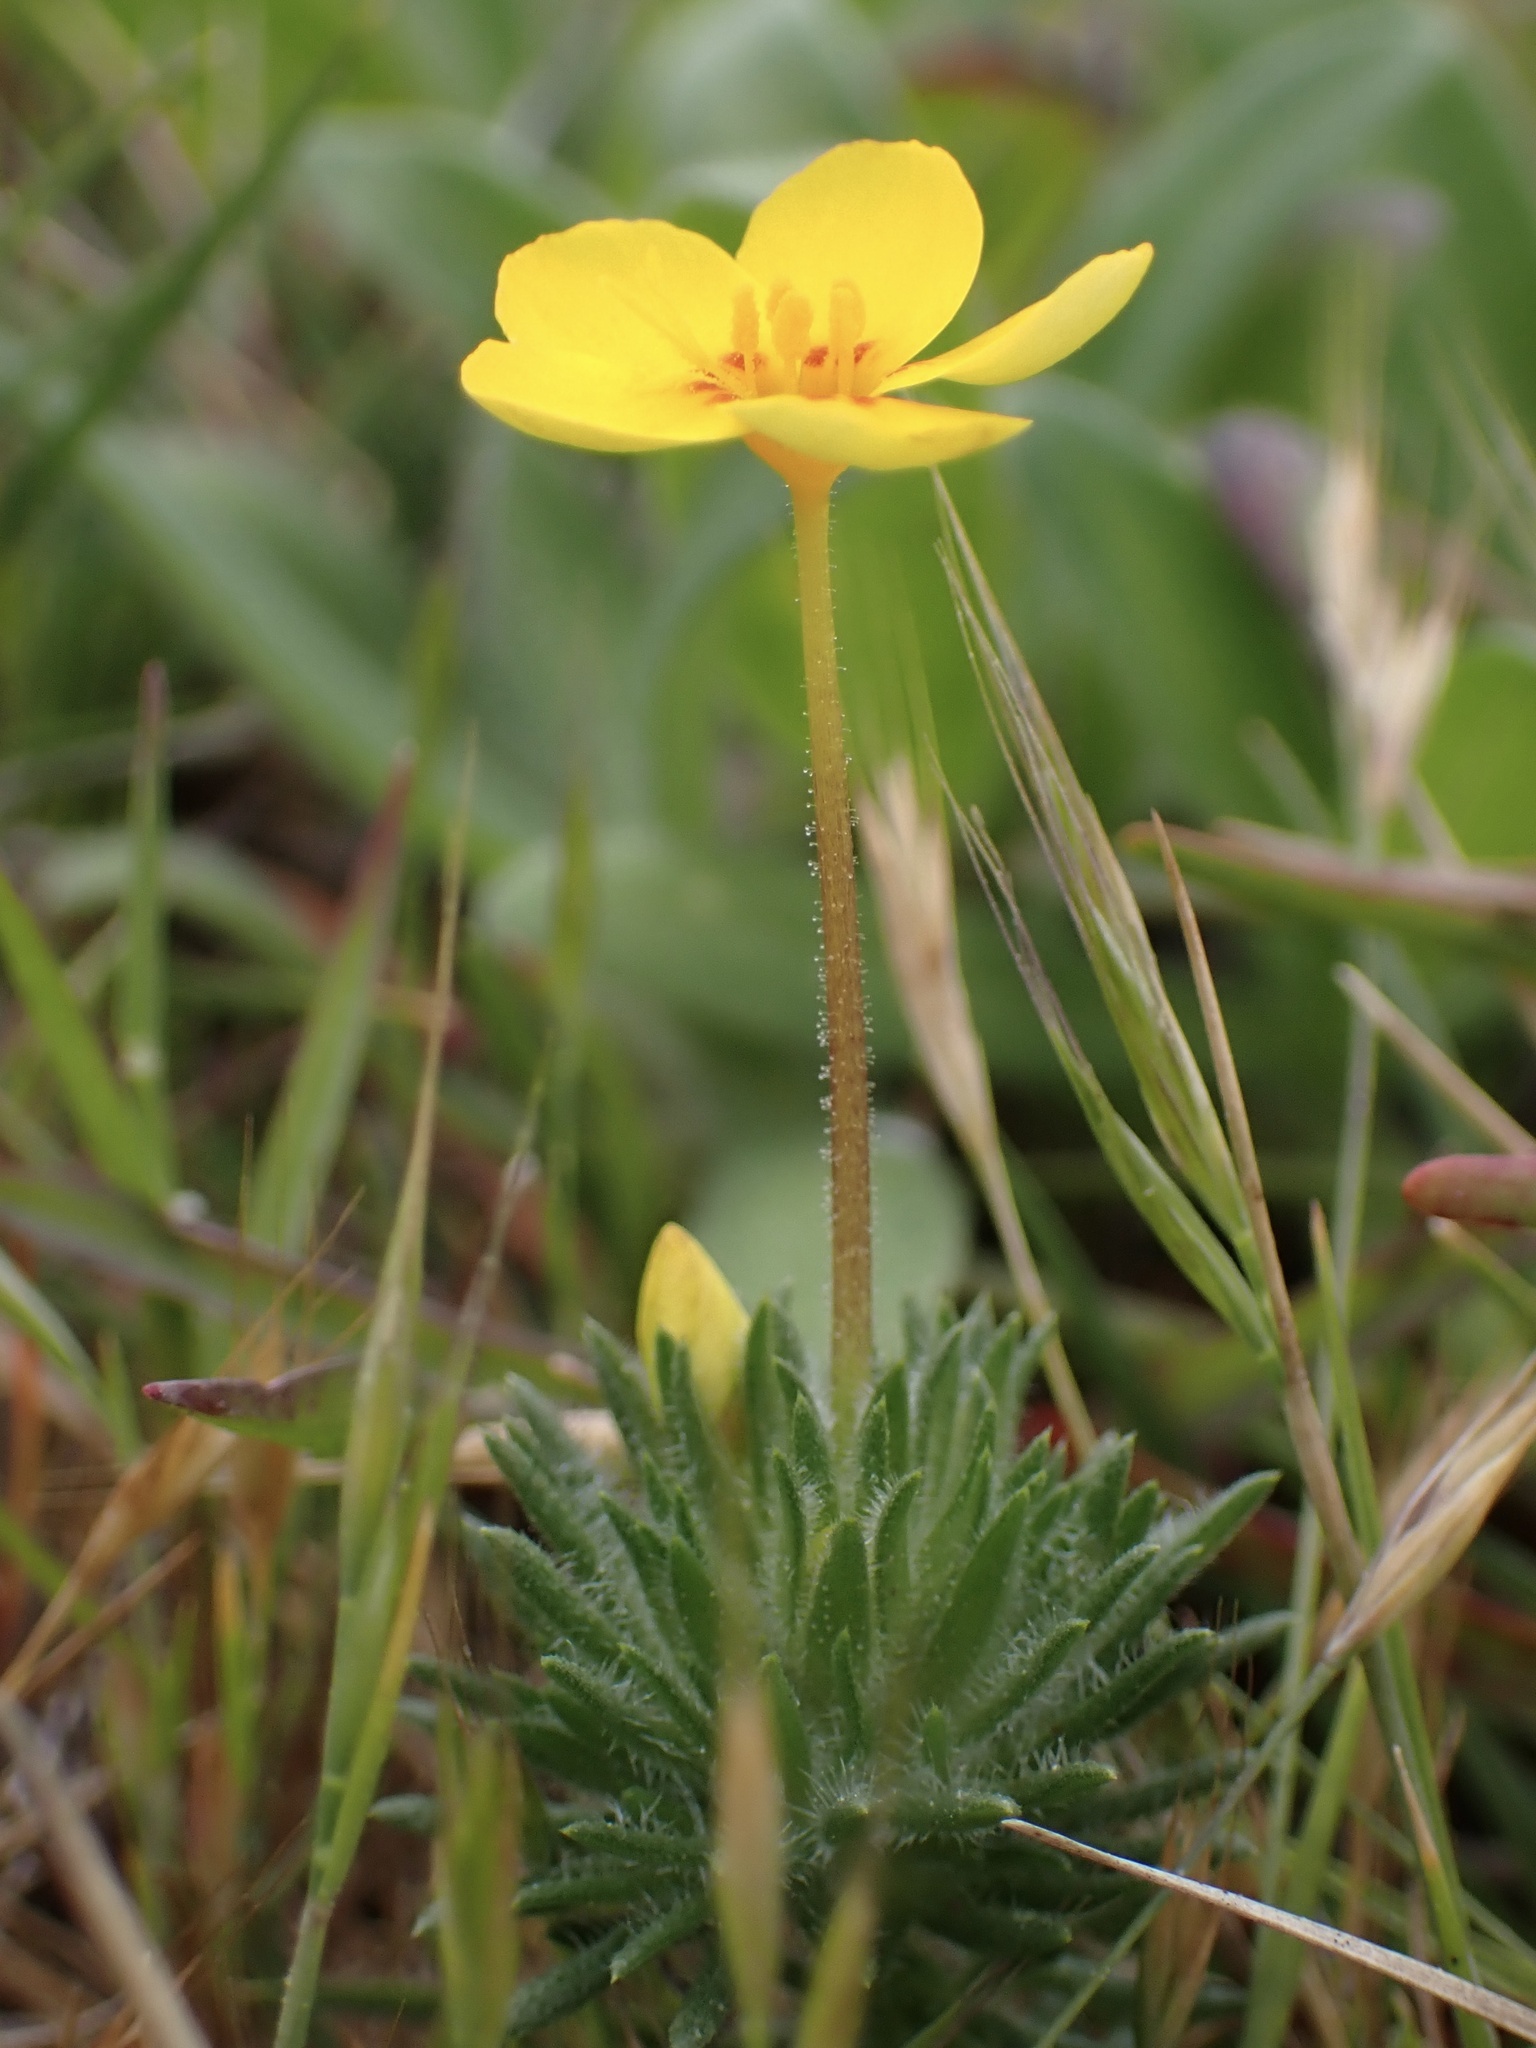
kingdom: Plantae
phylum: Tracheophyta
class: Magnoliopsida
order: Ericales
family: Polemoniaceae
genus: Leptosiphon
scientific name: Leptosiphon croceus
